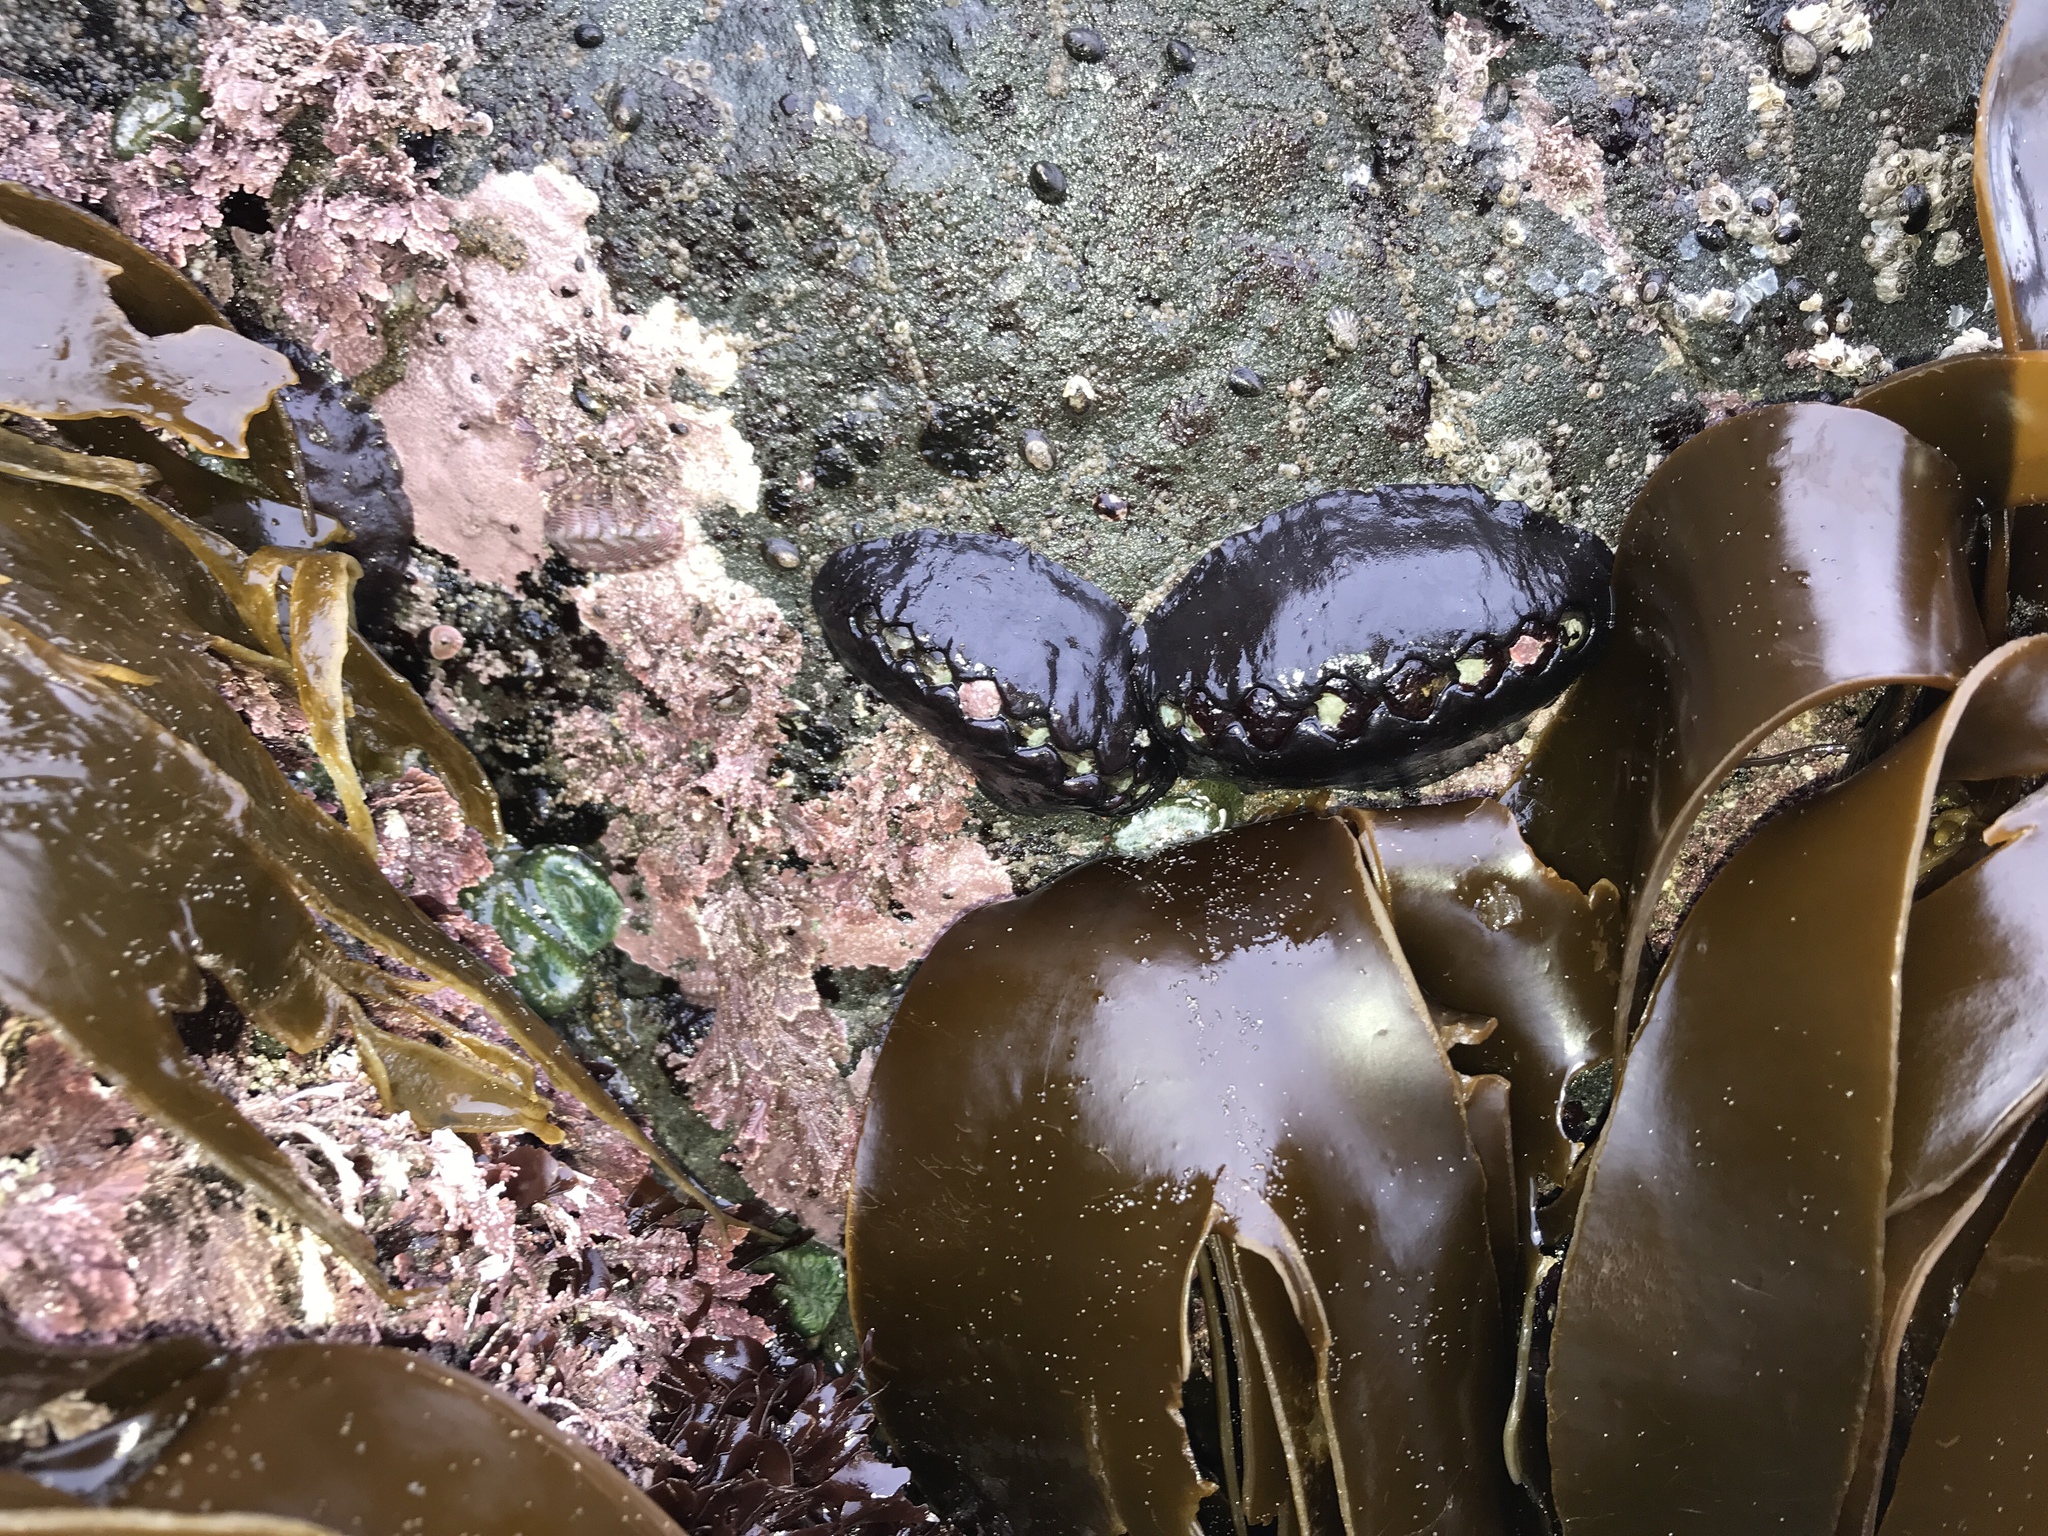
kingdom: Animalia
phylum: Mollusca
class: Polyplacophora
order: Chitonida
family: Mopaliidae
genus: Katharina
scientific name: Katharina tunicata
